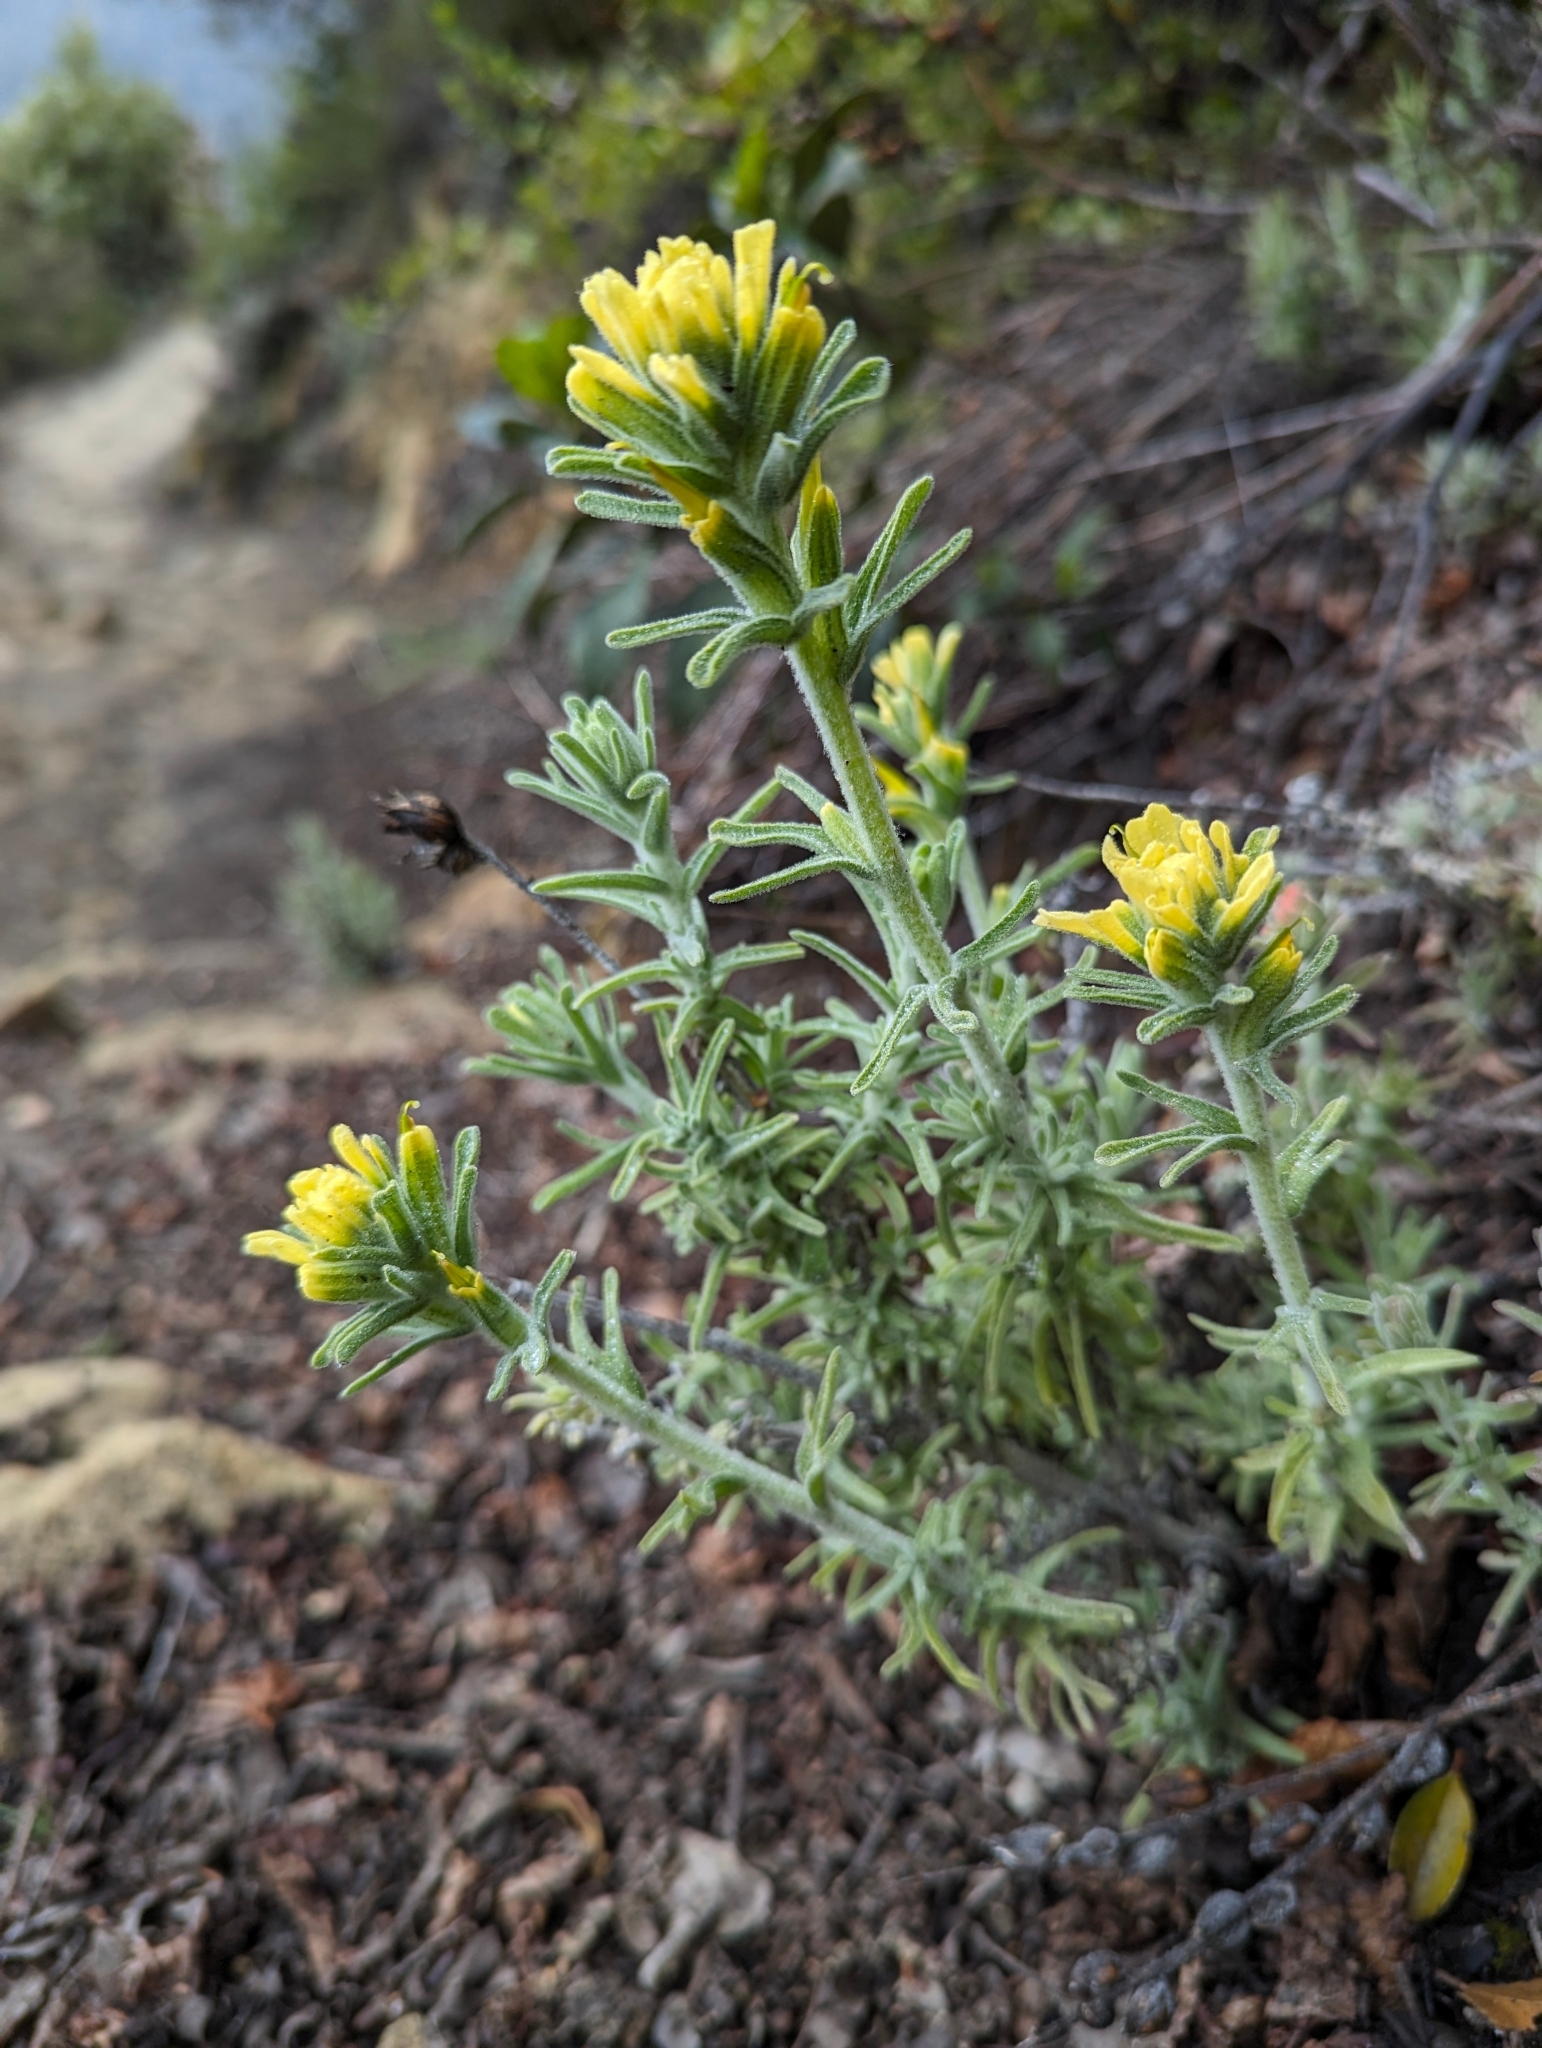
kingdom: Plantae
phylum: Tracheophyta
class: Magnoliopsida
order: Lamiales
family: Orobanchaceae
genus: Castilleja
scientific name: Castilleja foliolosa
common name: Woolly indian paintbrush
